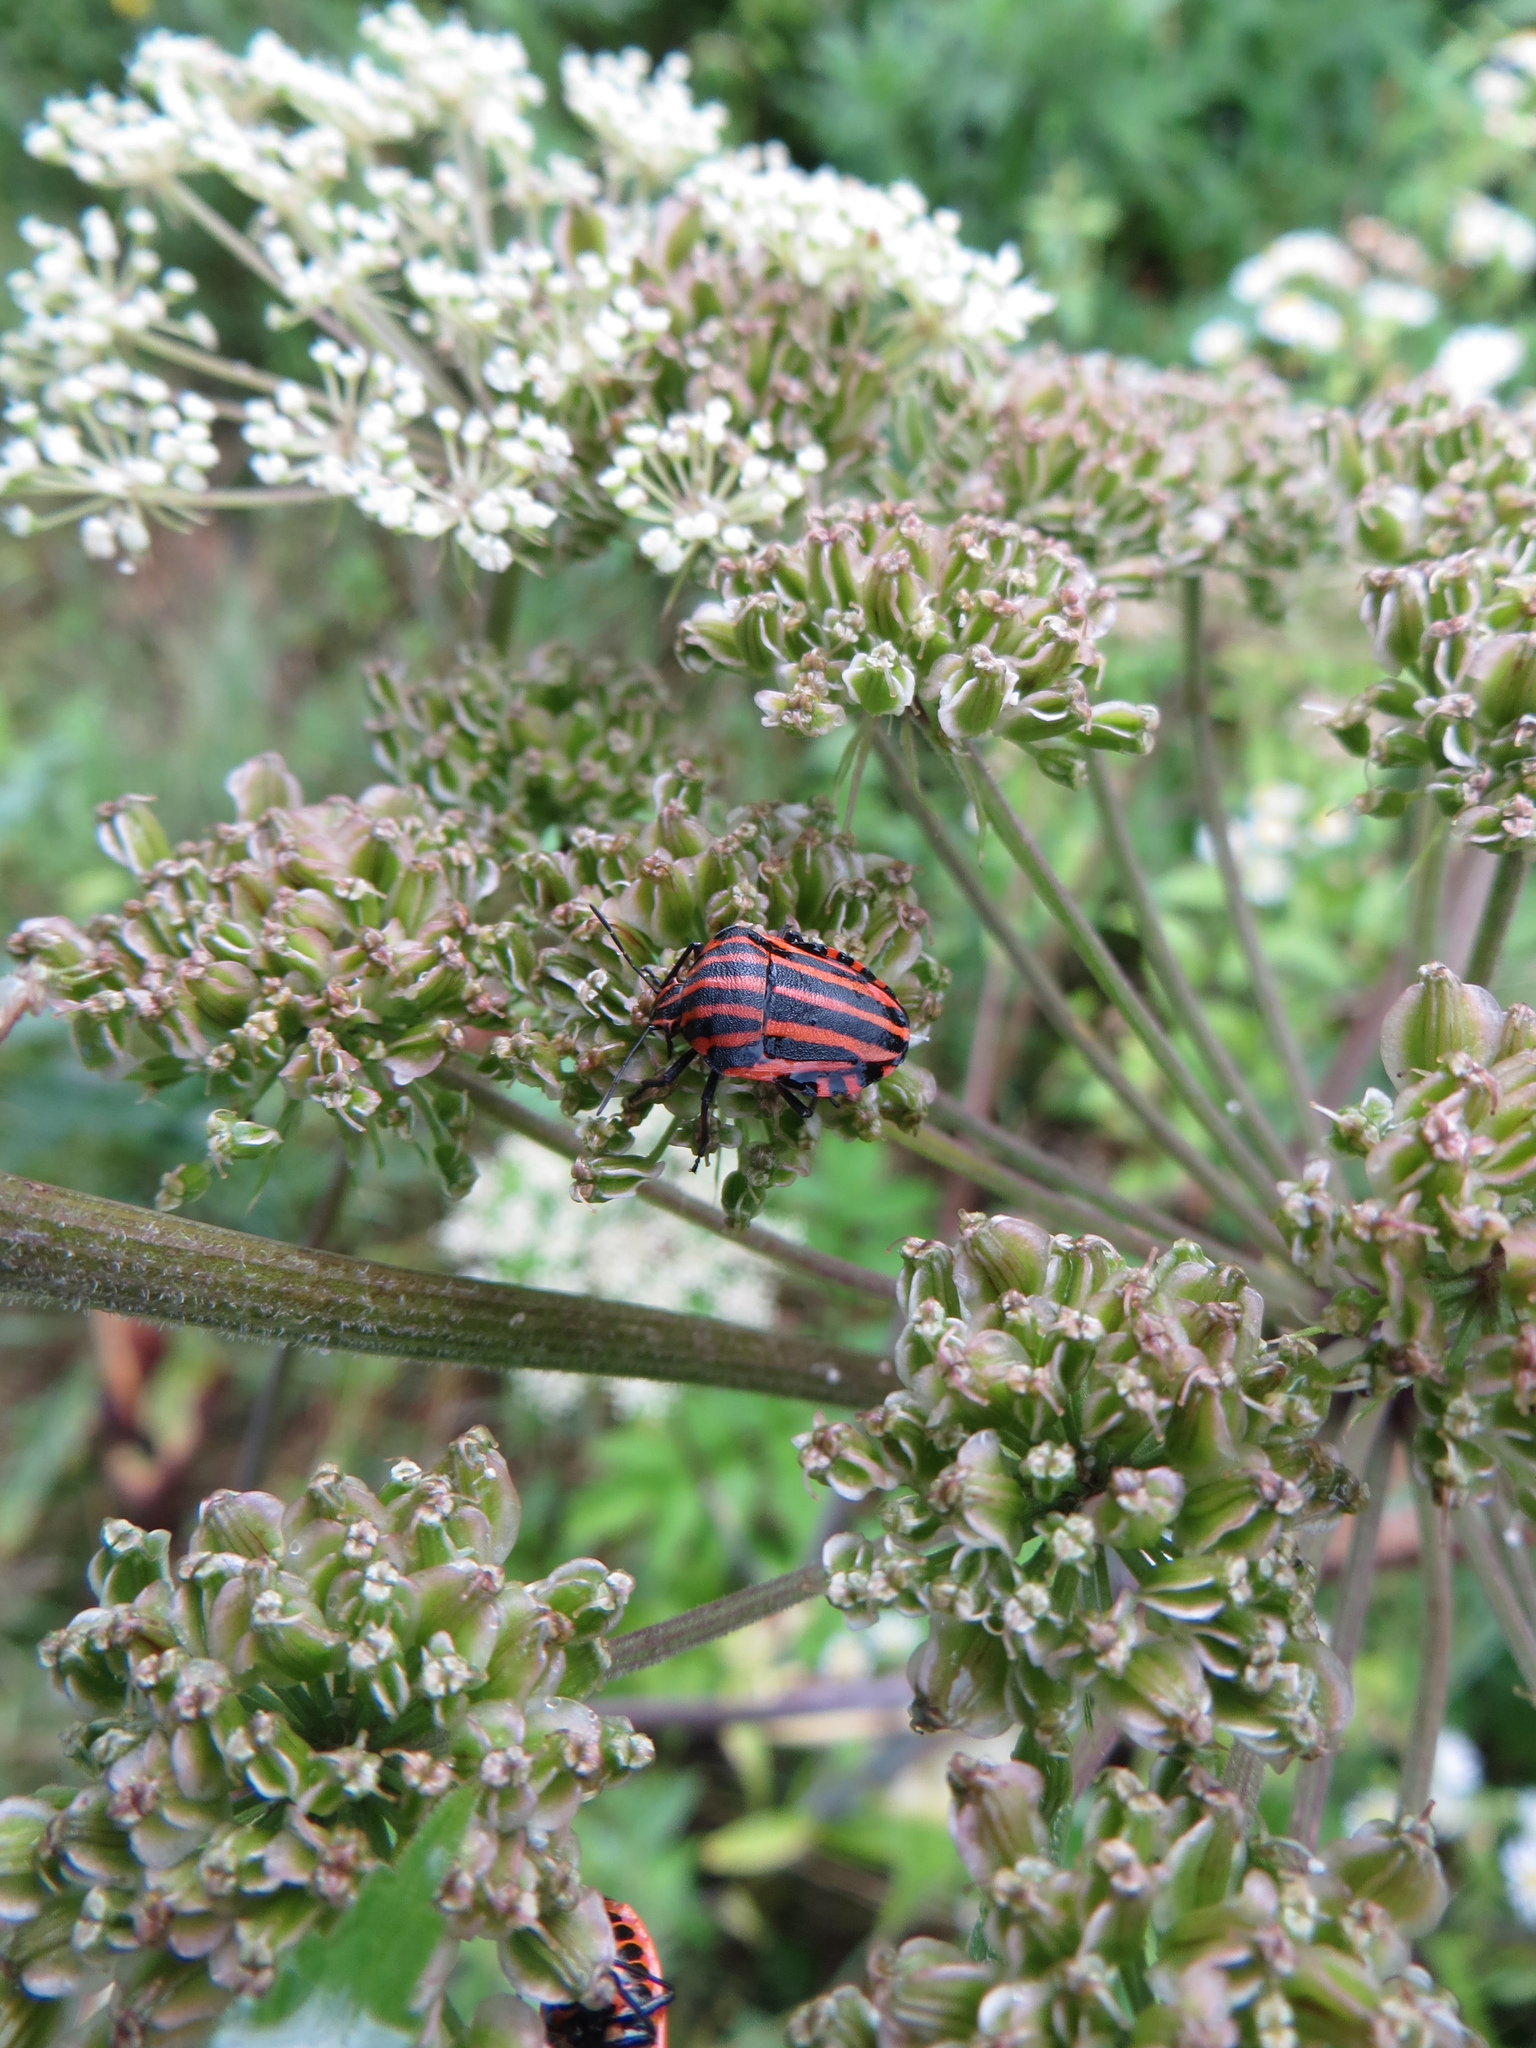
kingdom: Animalia
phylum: Arthropoda
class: Insecta
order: Hemiptera
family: Pentatomidae
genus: Graphosoma
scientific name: Graphosoma italicum
